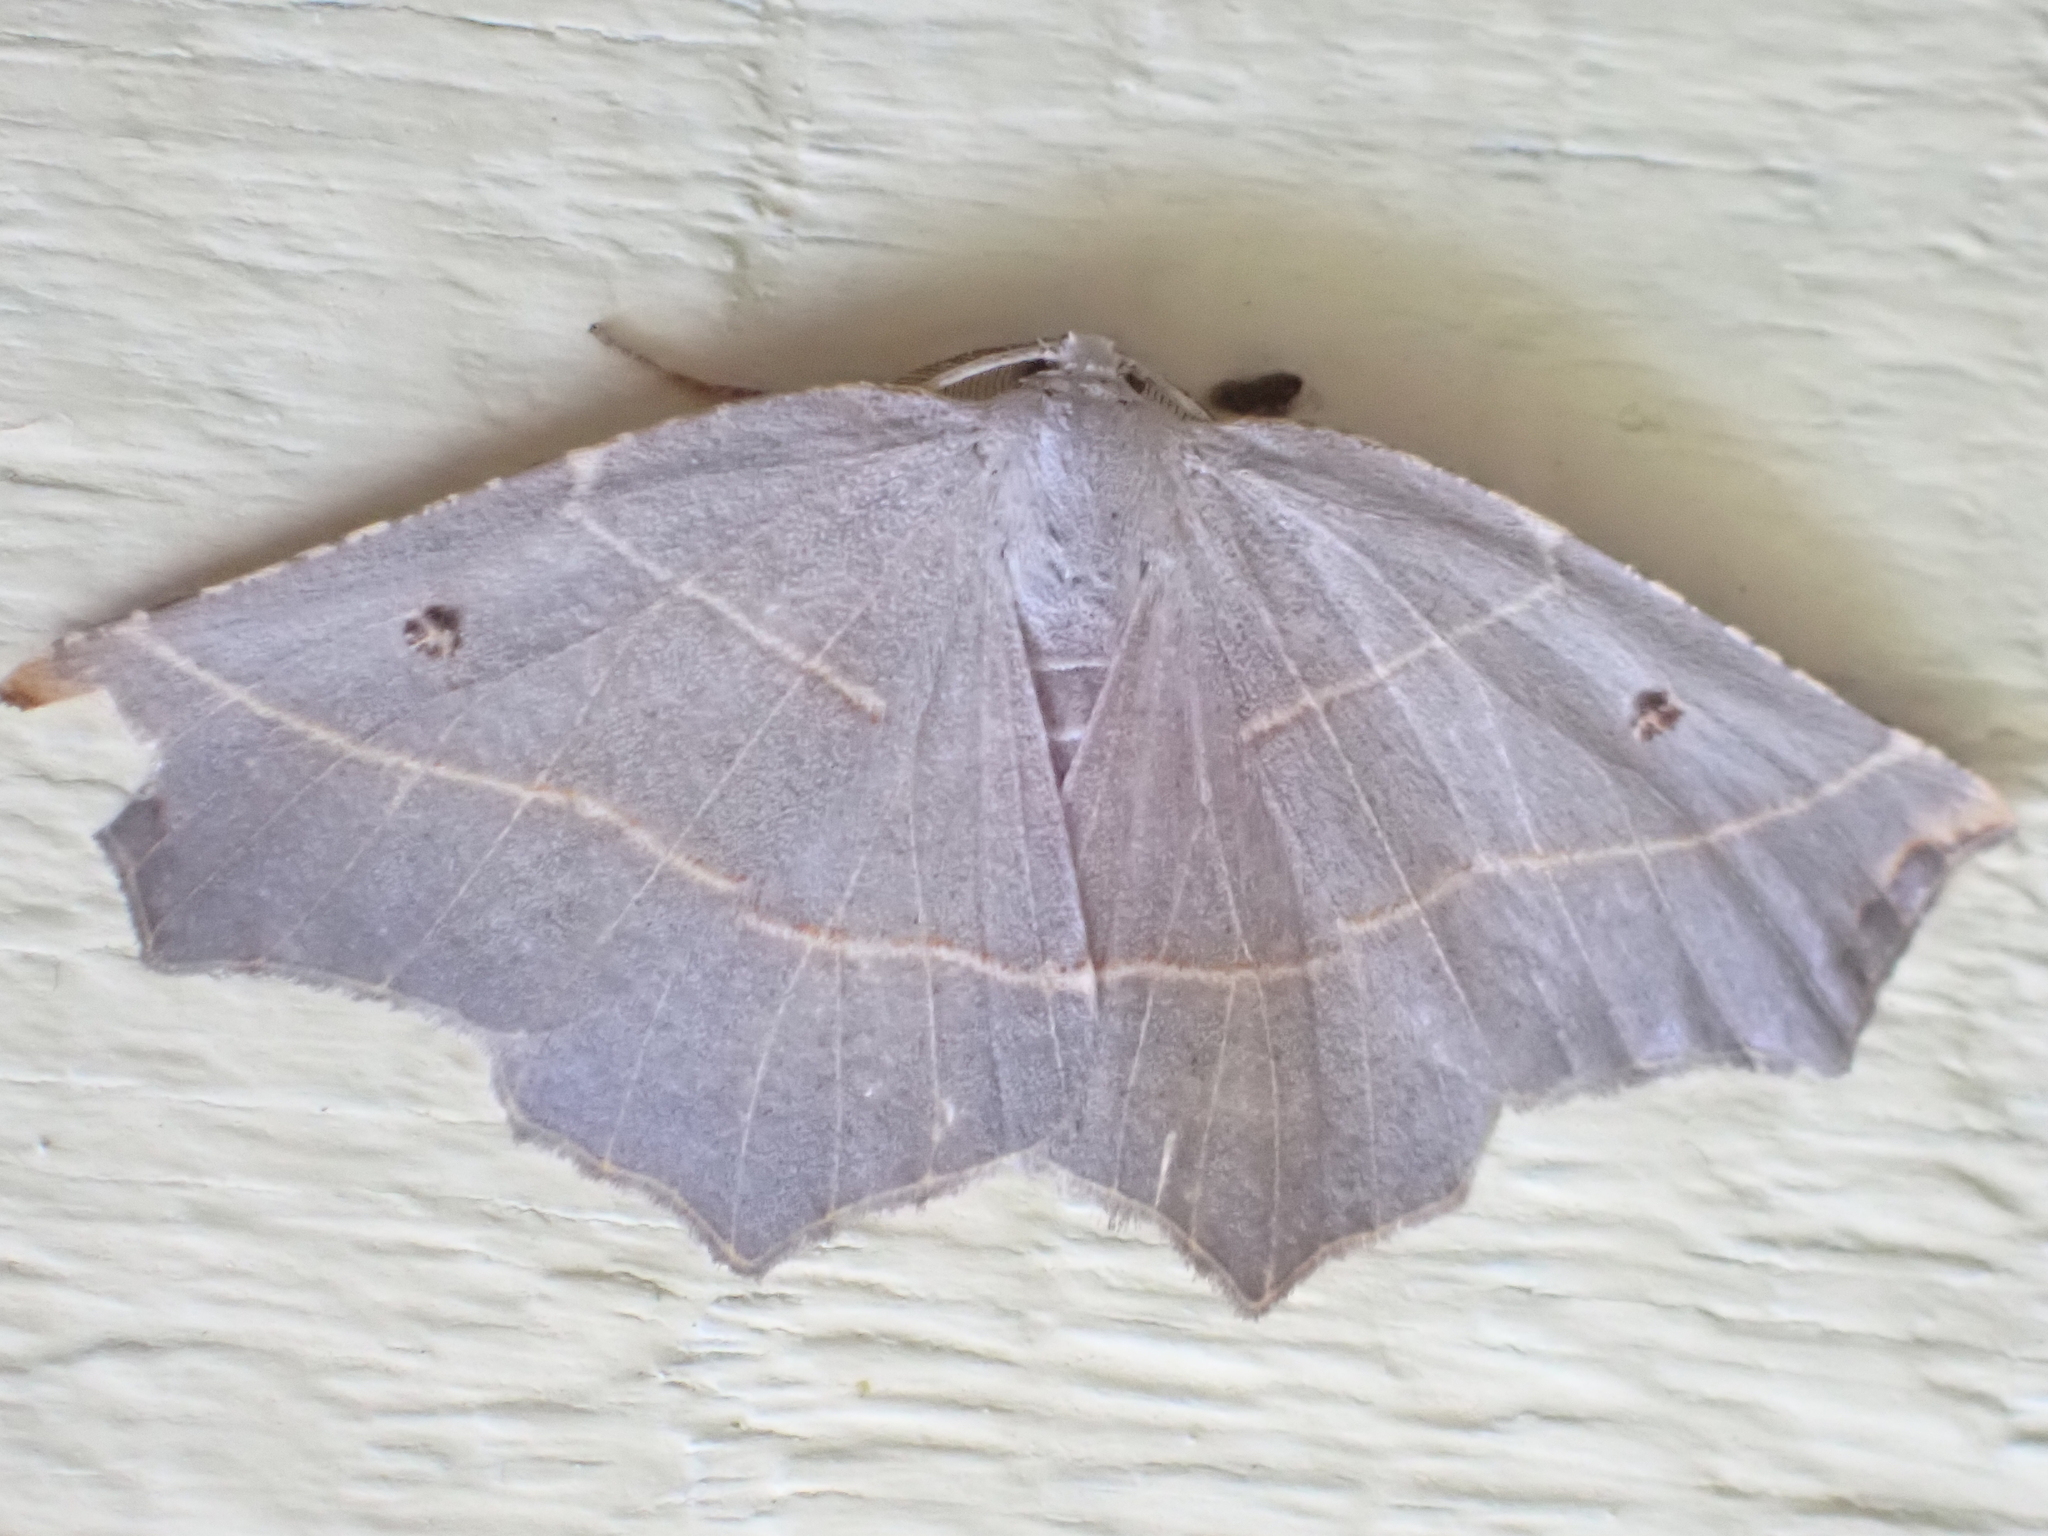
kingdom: Animalia
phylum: Arthropoda
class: Insecta
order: Lepidoptera
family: Geometridae
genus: Metanema
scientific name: Metanema inatomaria
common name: Pale metanema
